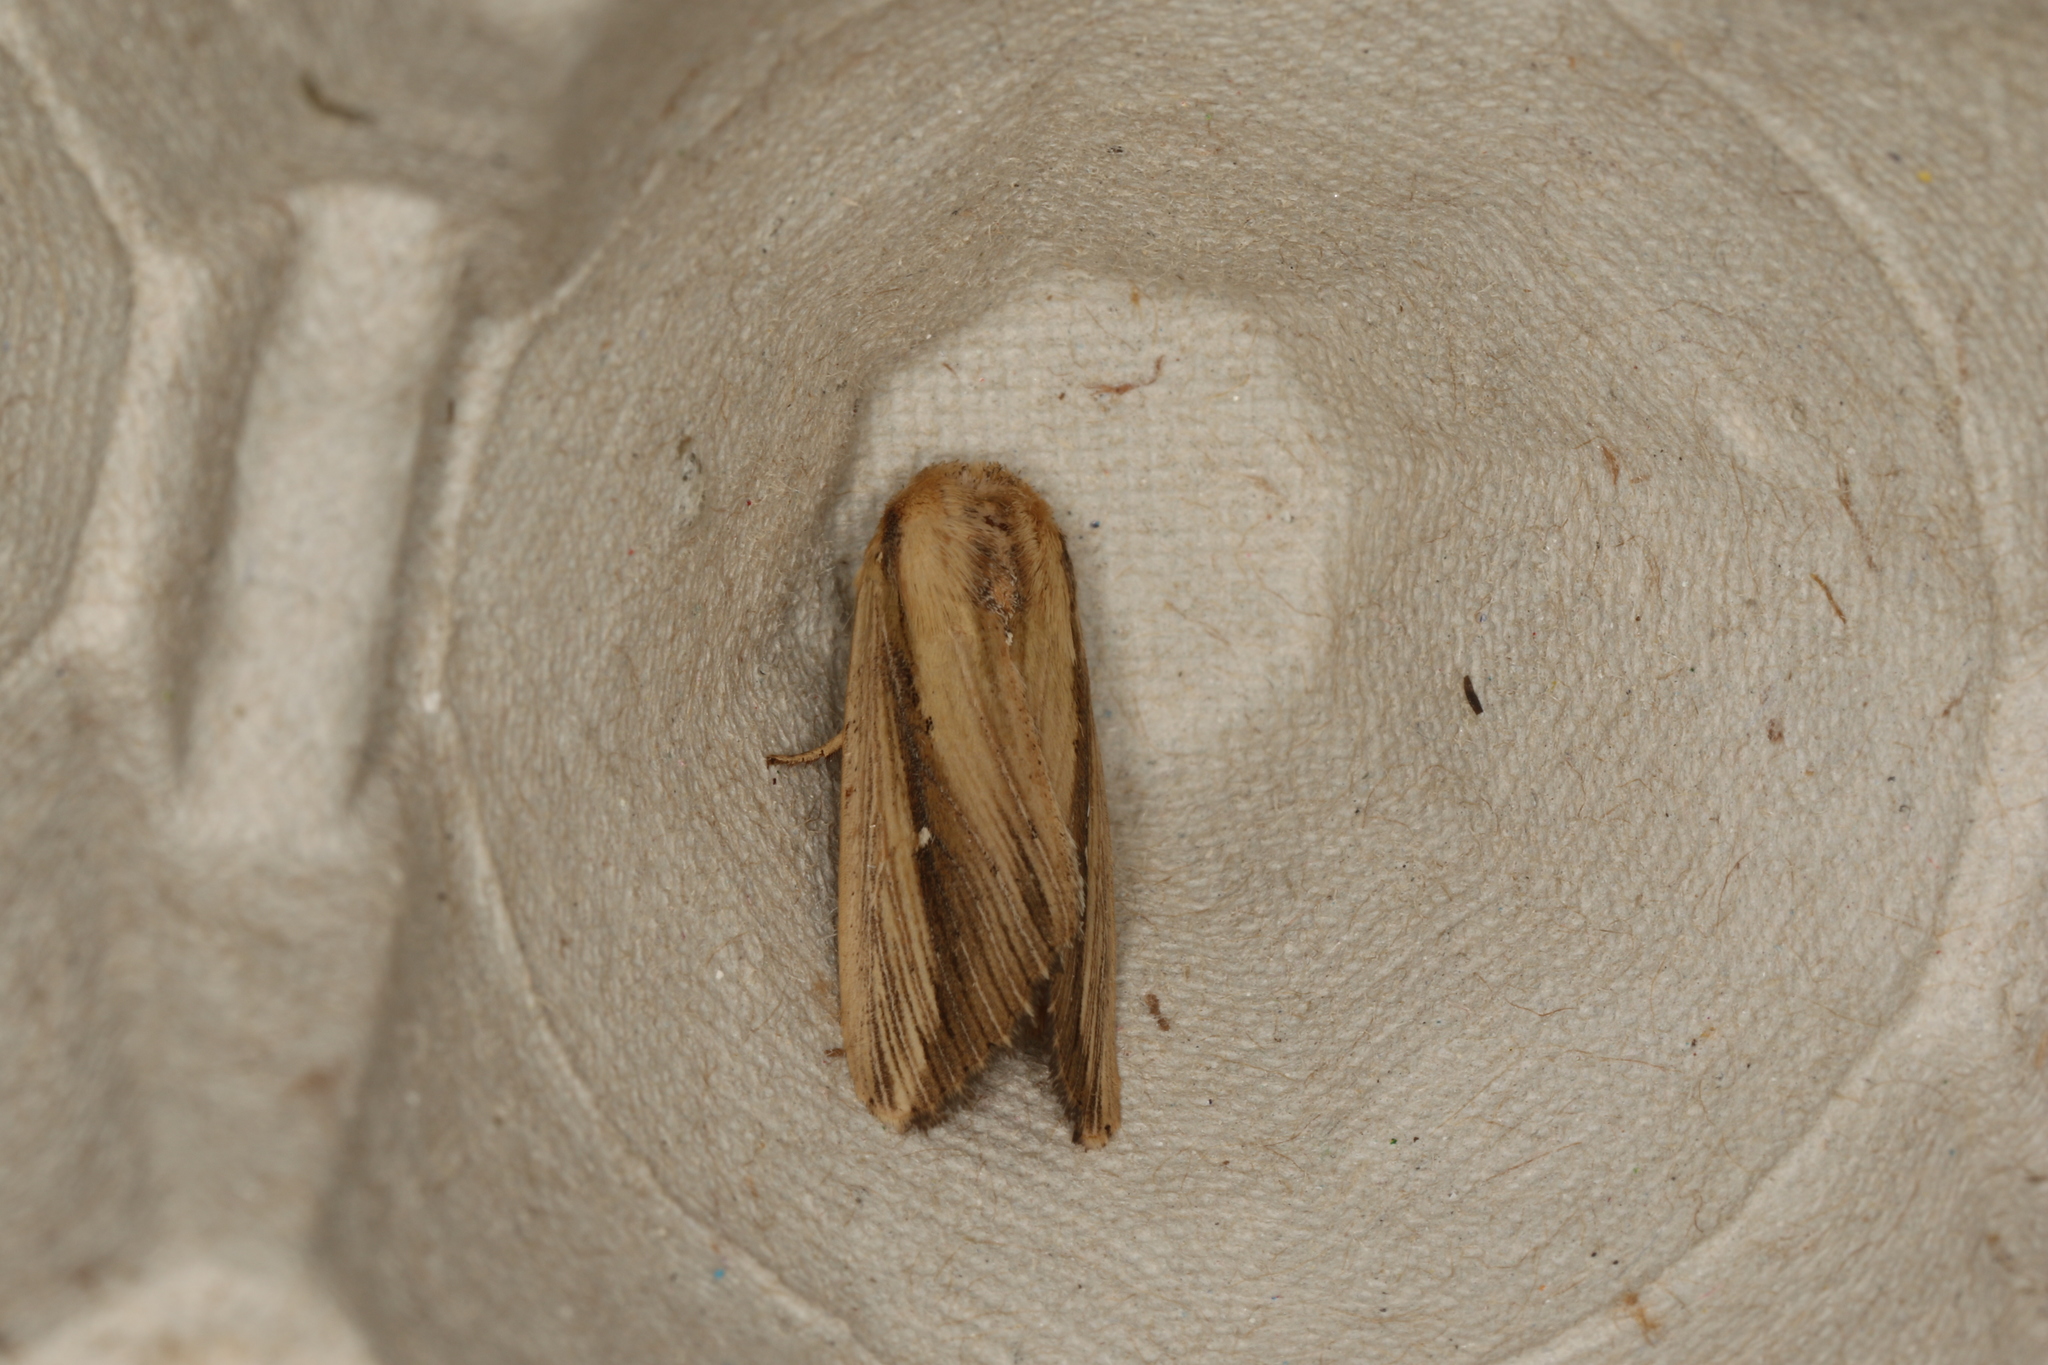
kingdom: Animalia
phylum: Arthropoda
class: Insecta
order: Lepidoptera
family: Noctuidae
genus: Leucania
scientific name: Leucania stenographa
